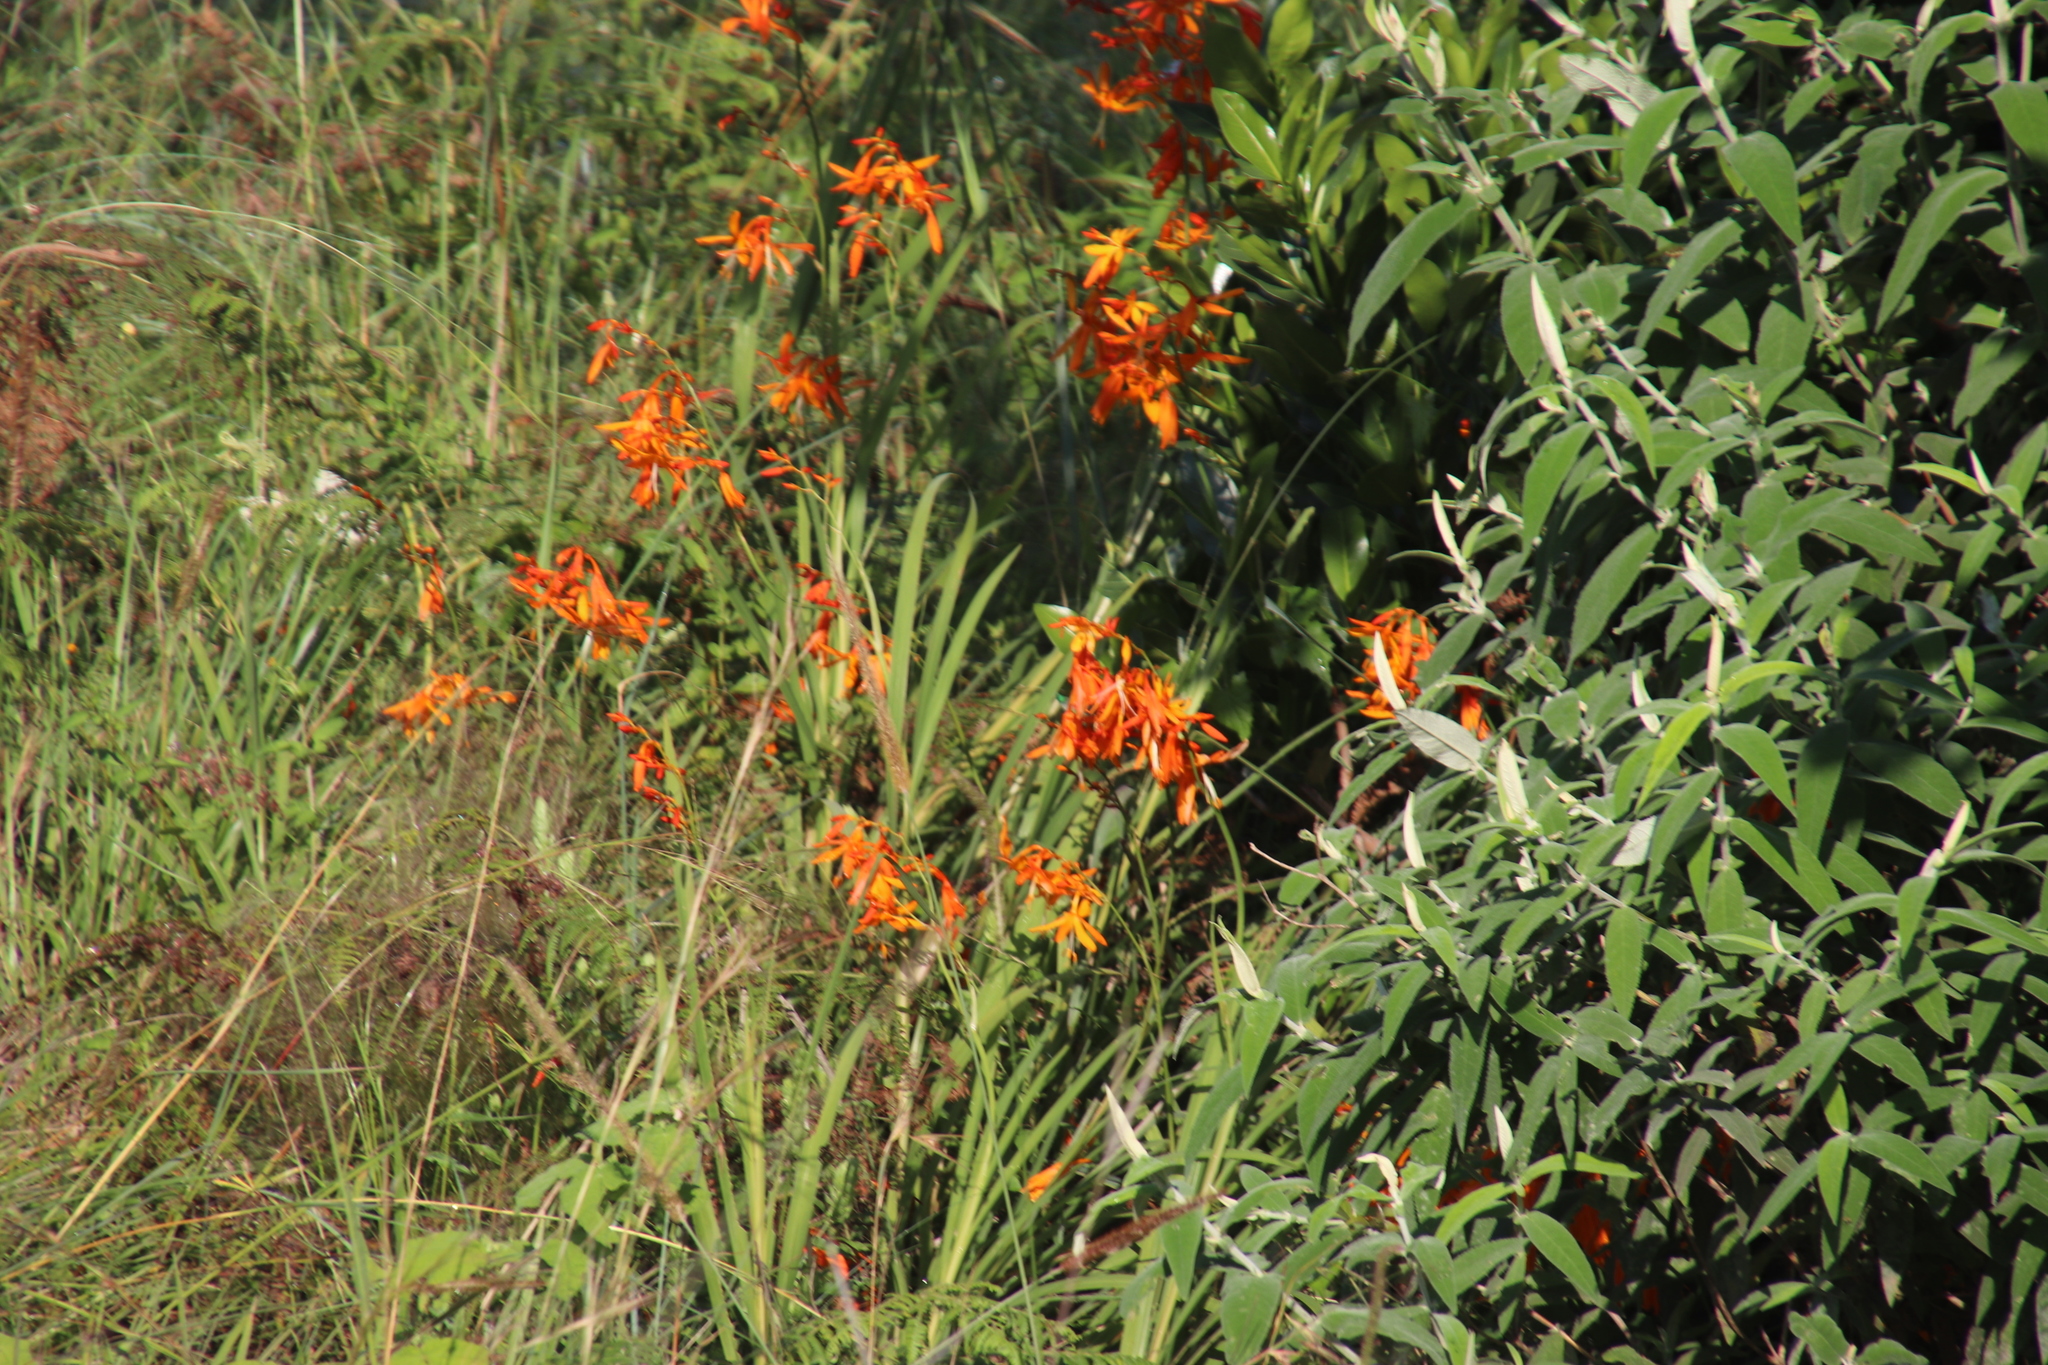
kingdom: Plantae
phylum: Tracheophyta
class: Liliopsida
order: Asparagales
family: Iridaceae
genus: Crocosmia
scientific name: Crocosmia aurea
